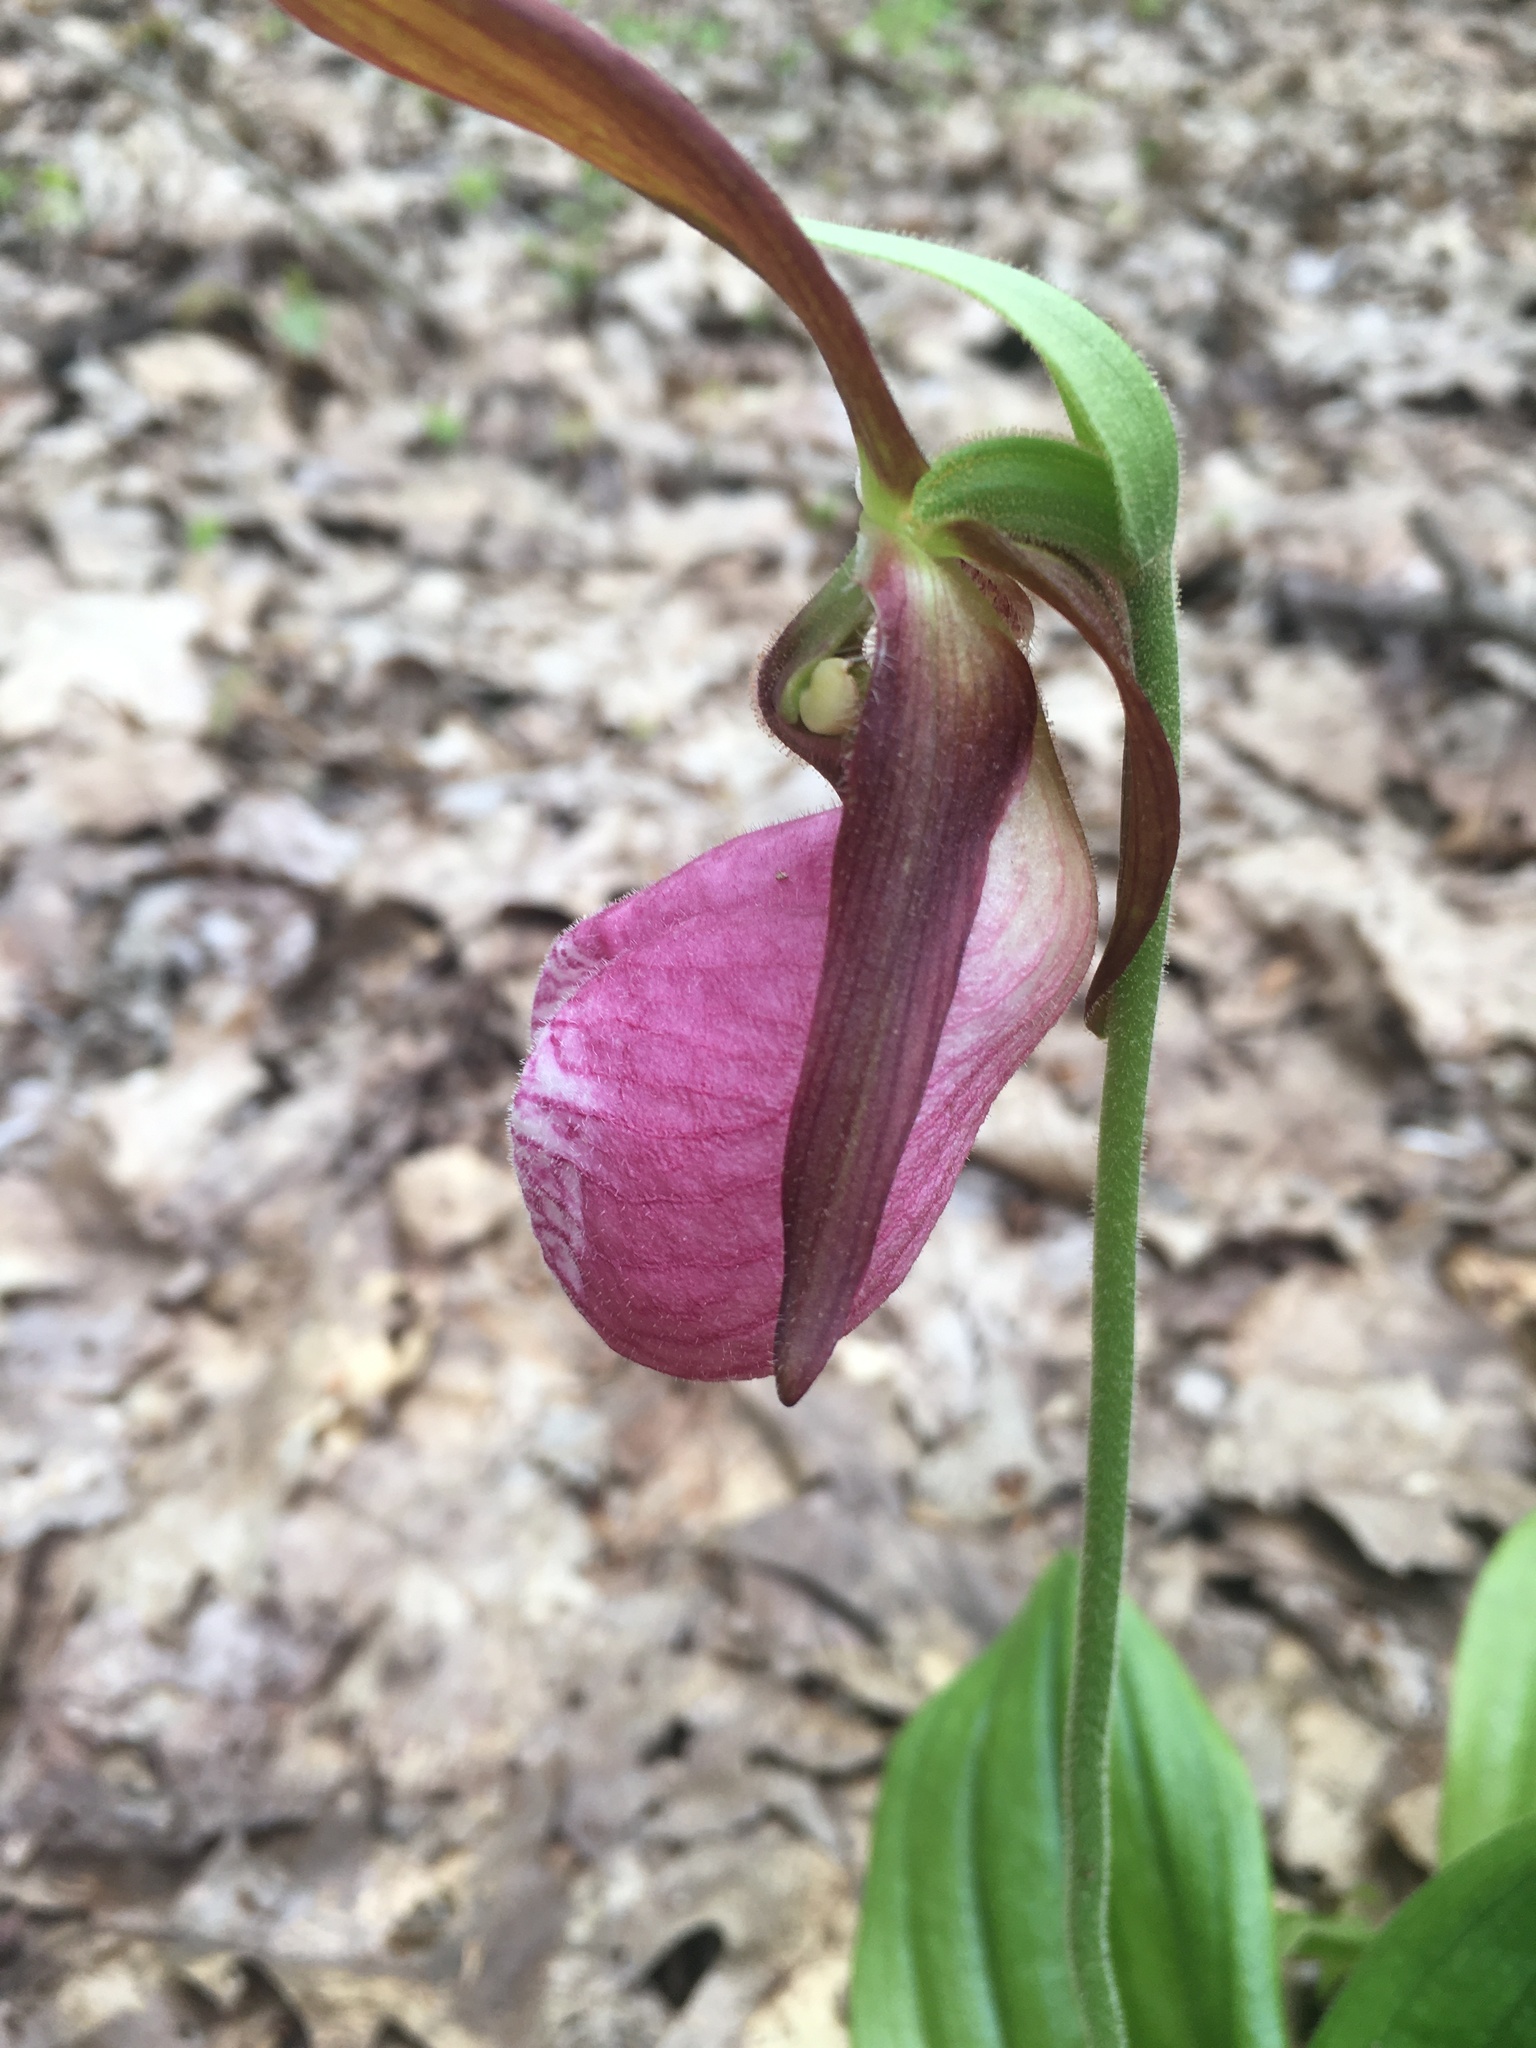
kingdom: Plantae
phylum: Tracheophyta
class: Liliopsida
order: Asparagales
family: Orchidaceae
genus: Cypripedium
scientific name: Cypripedium acaule
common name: Pink lady's-slipper
